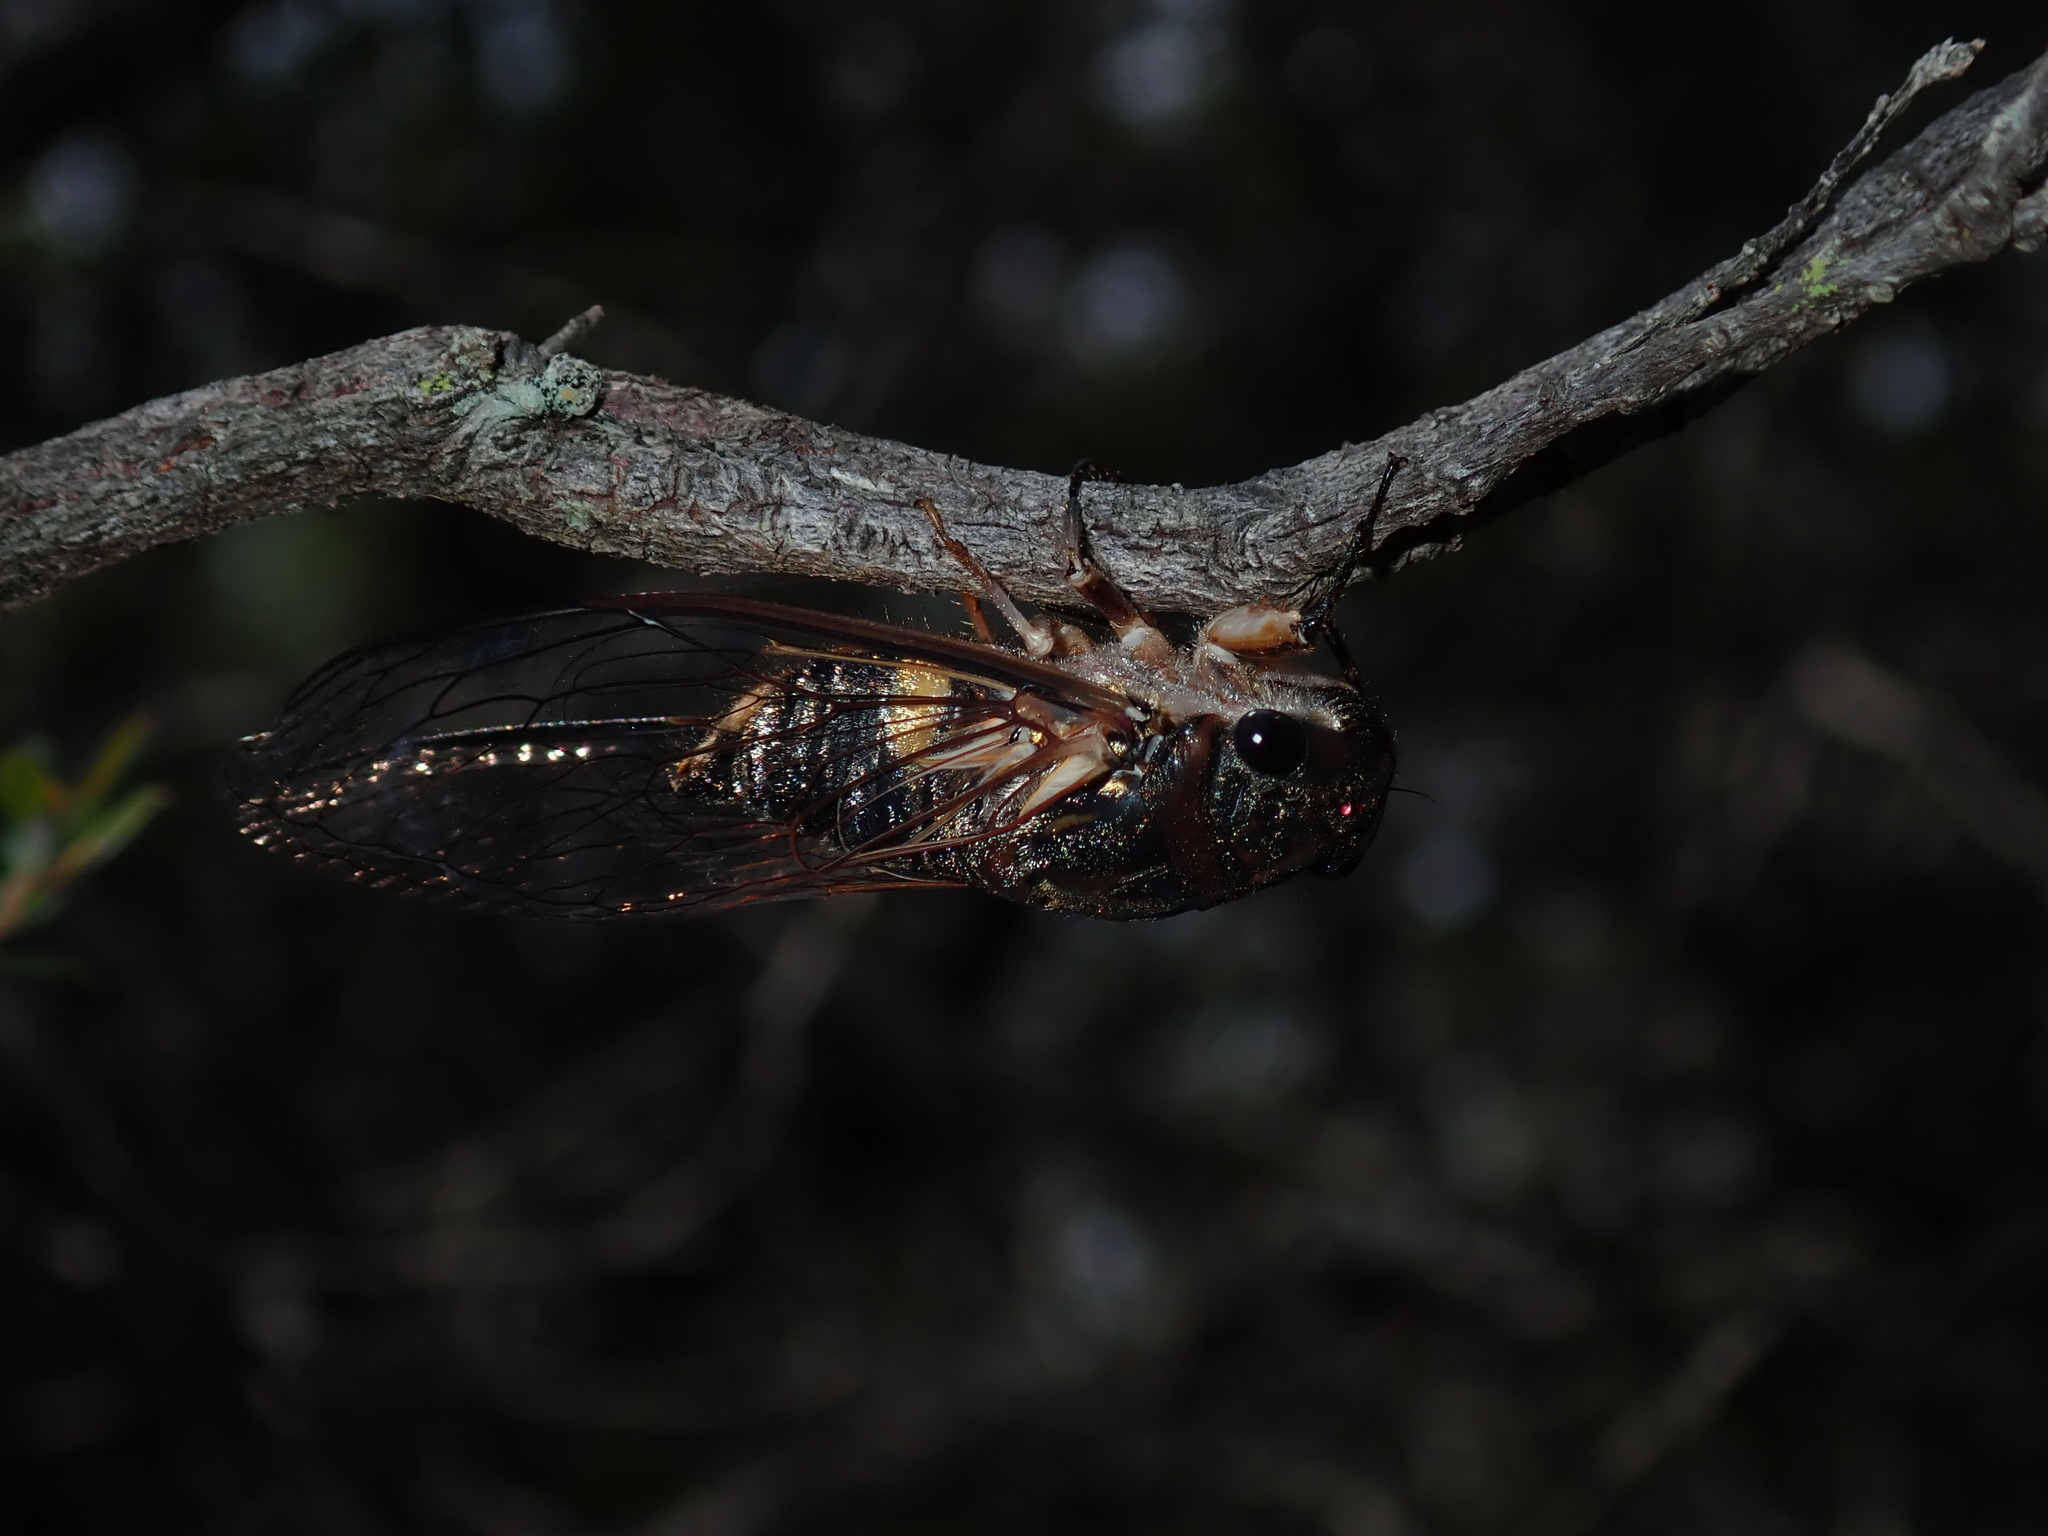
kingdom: Animalia
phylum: Arthropoda
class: Insecta
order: Hemiptera
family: Cicadidae
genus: Psaltoda
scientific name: Psaltoda harrisii
